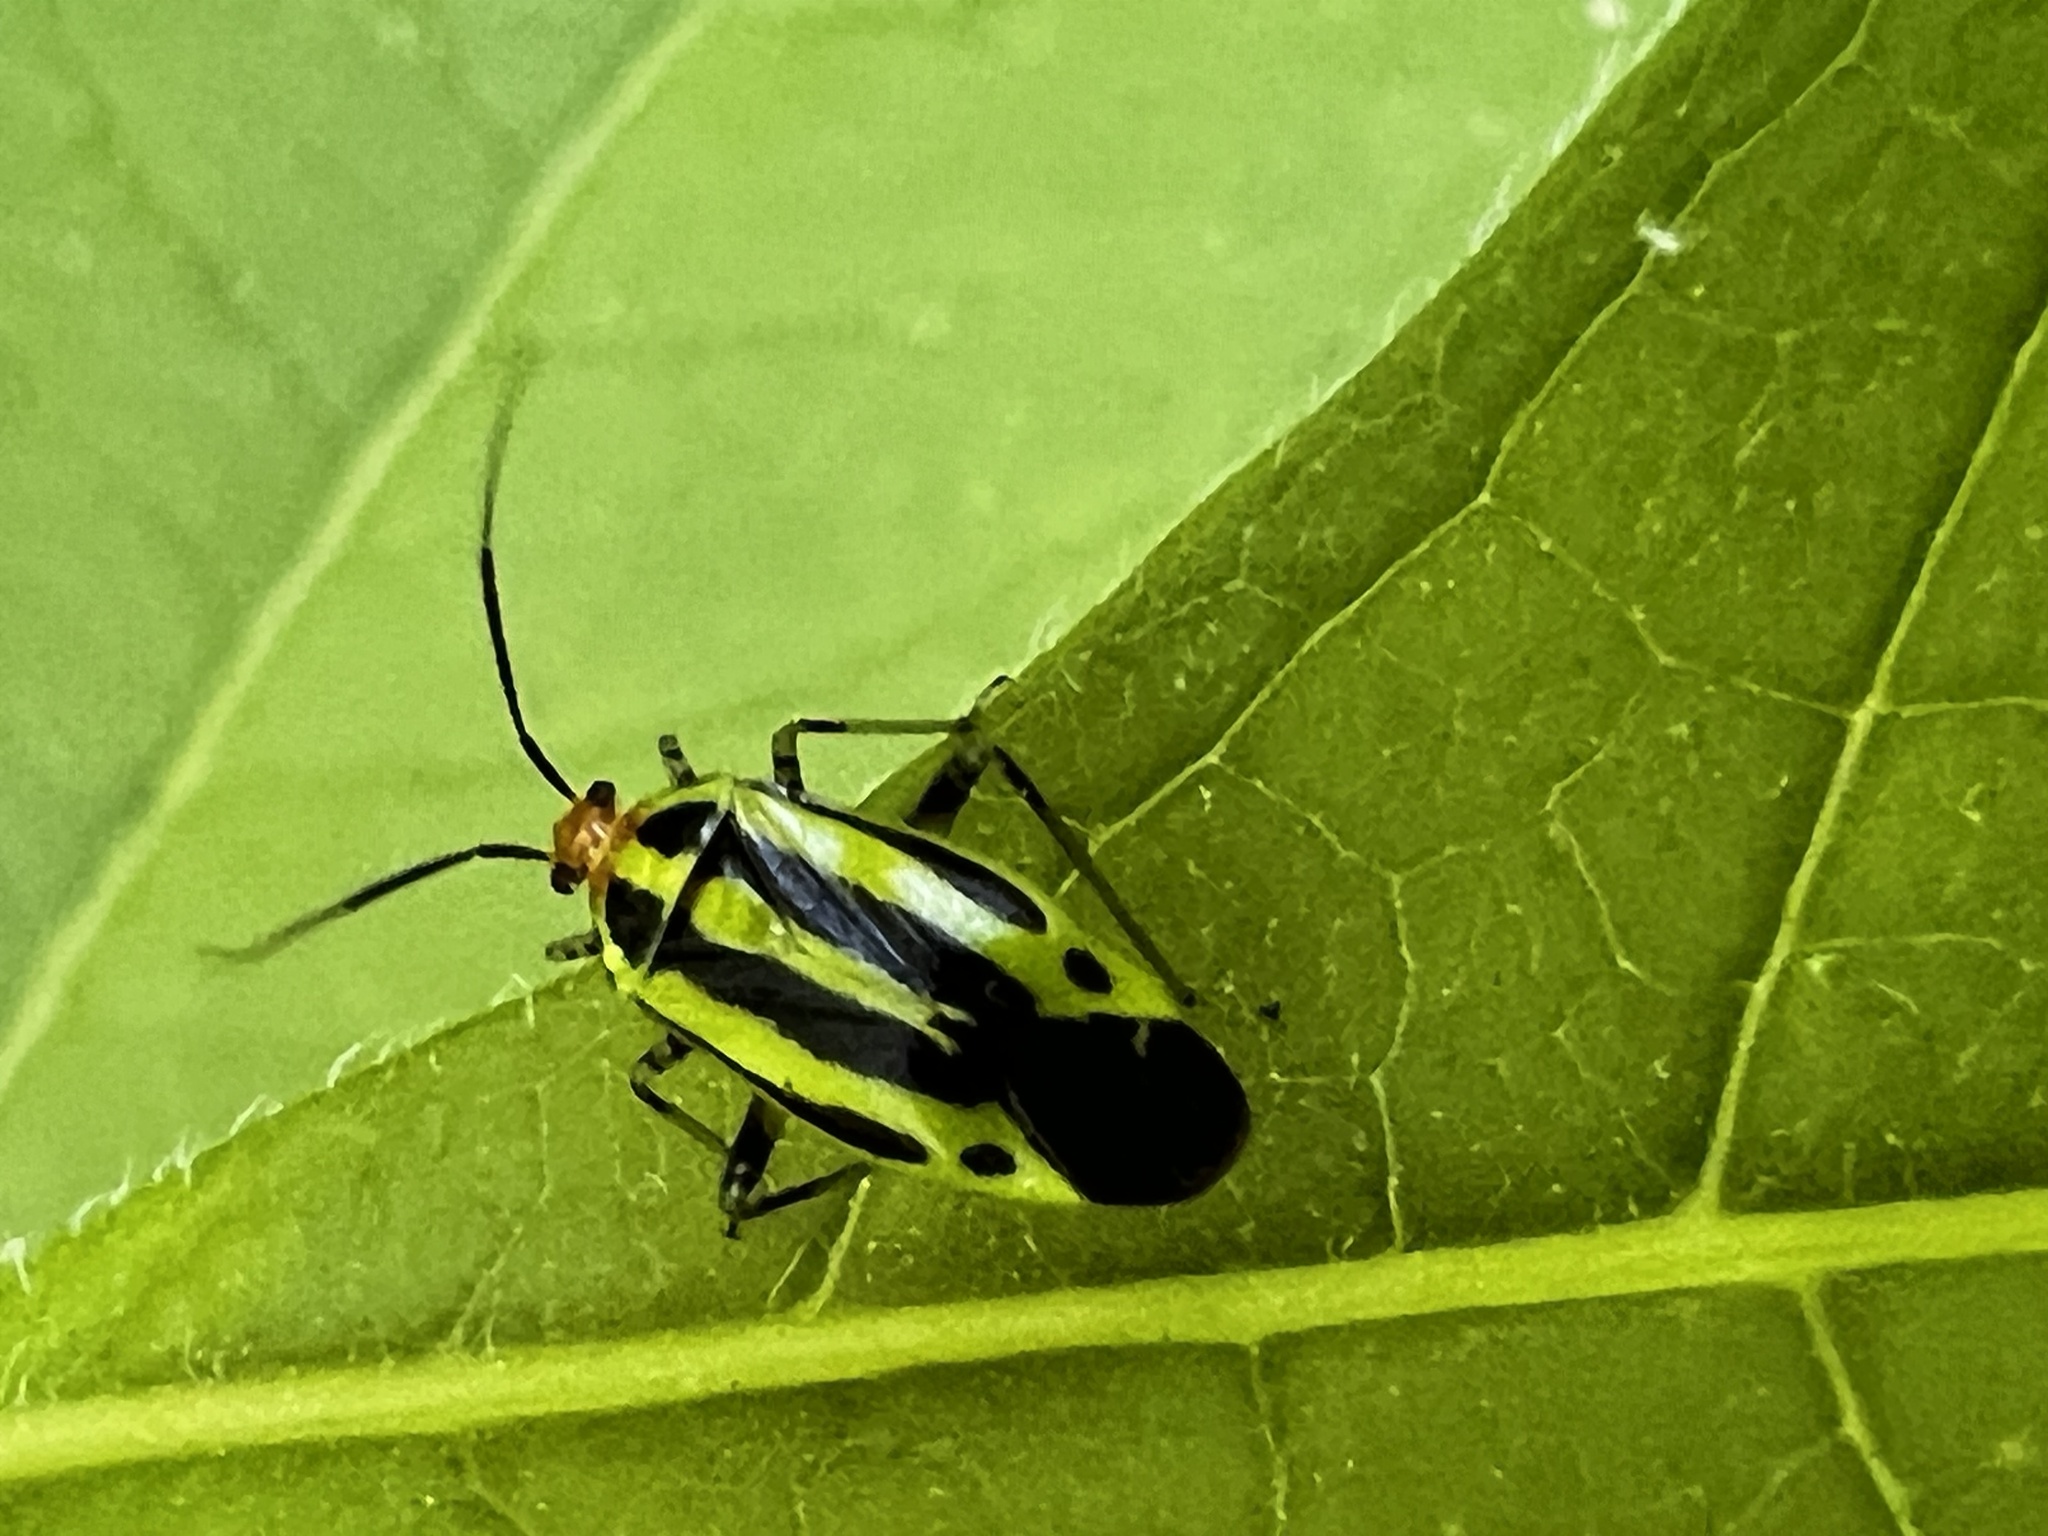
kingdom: Animalia
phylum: Arthropoda
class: Insecta
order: Hemiptera
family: Miridae
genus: Poecilocapsus
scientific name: Poecilocapsus lineatus
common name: Four-lined plant bug
